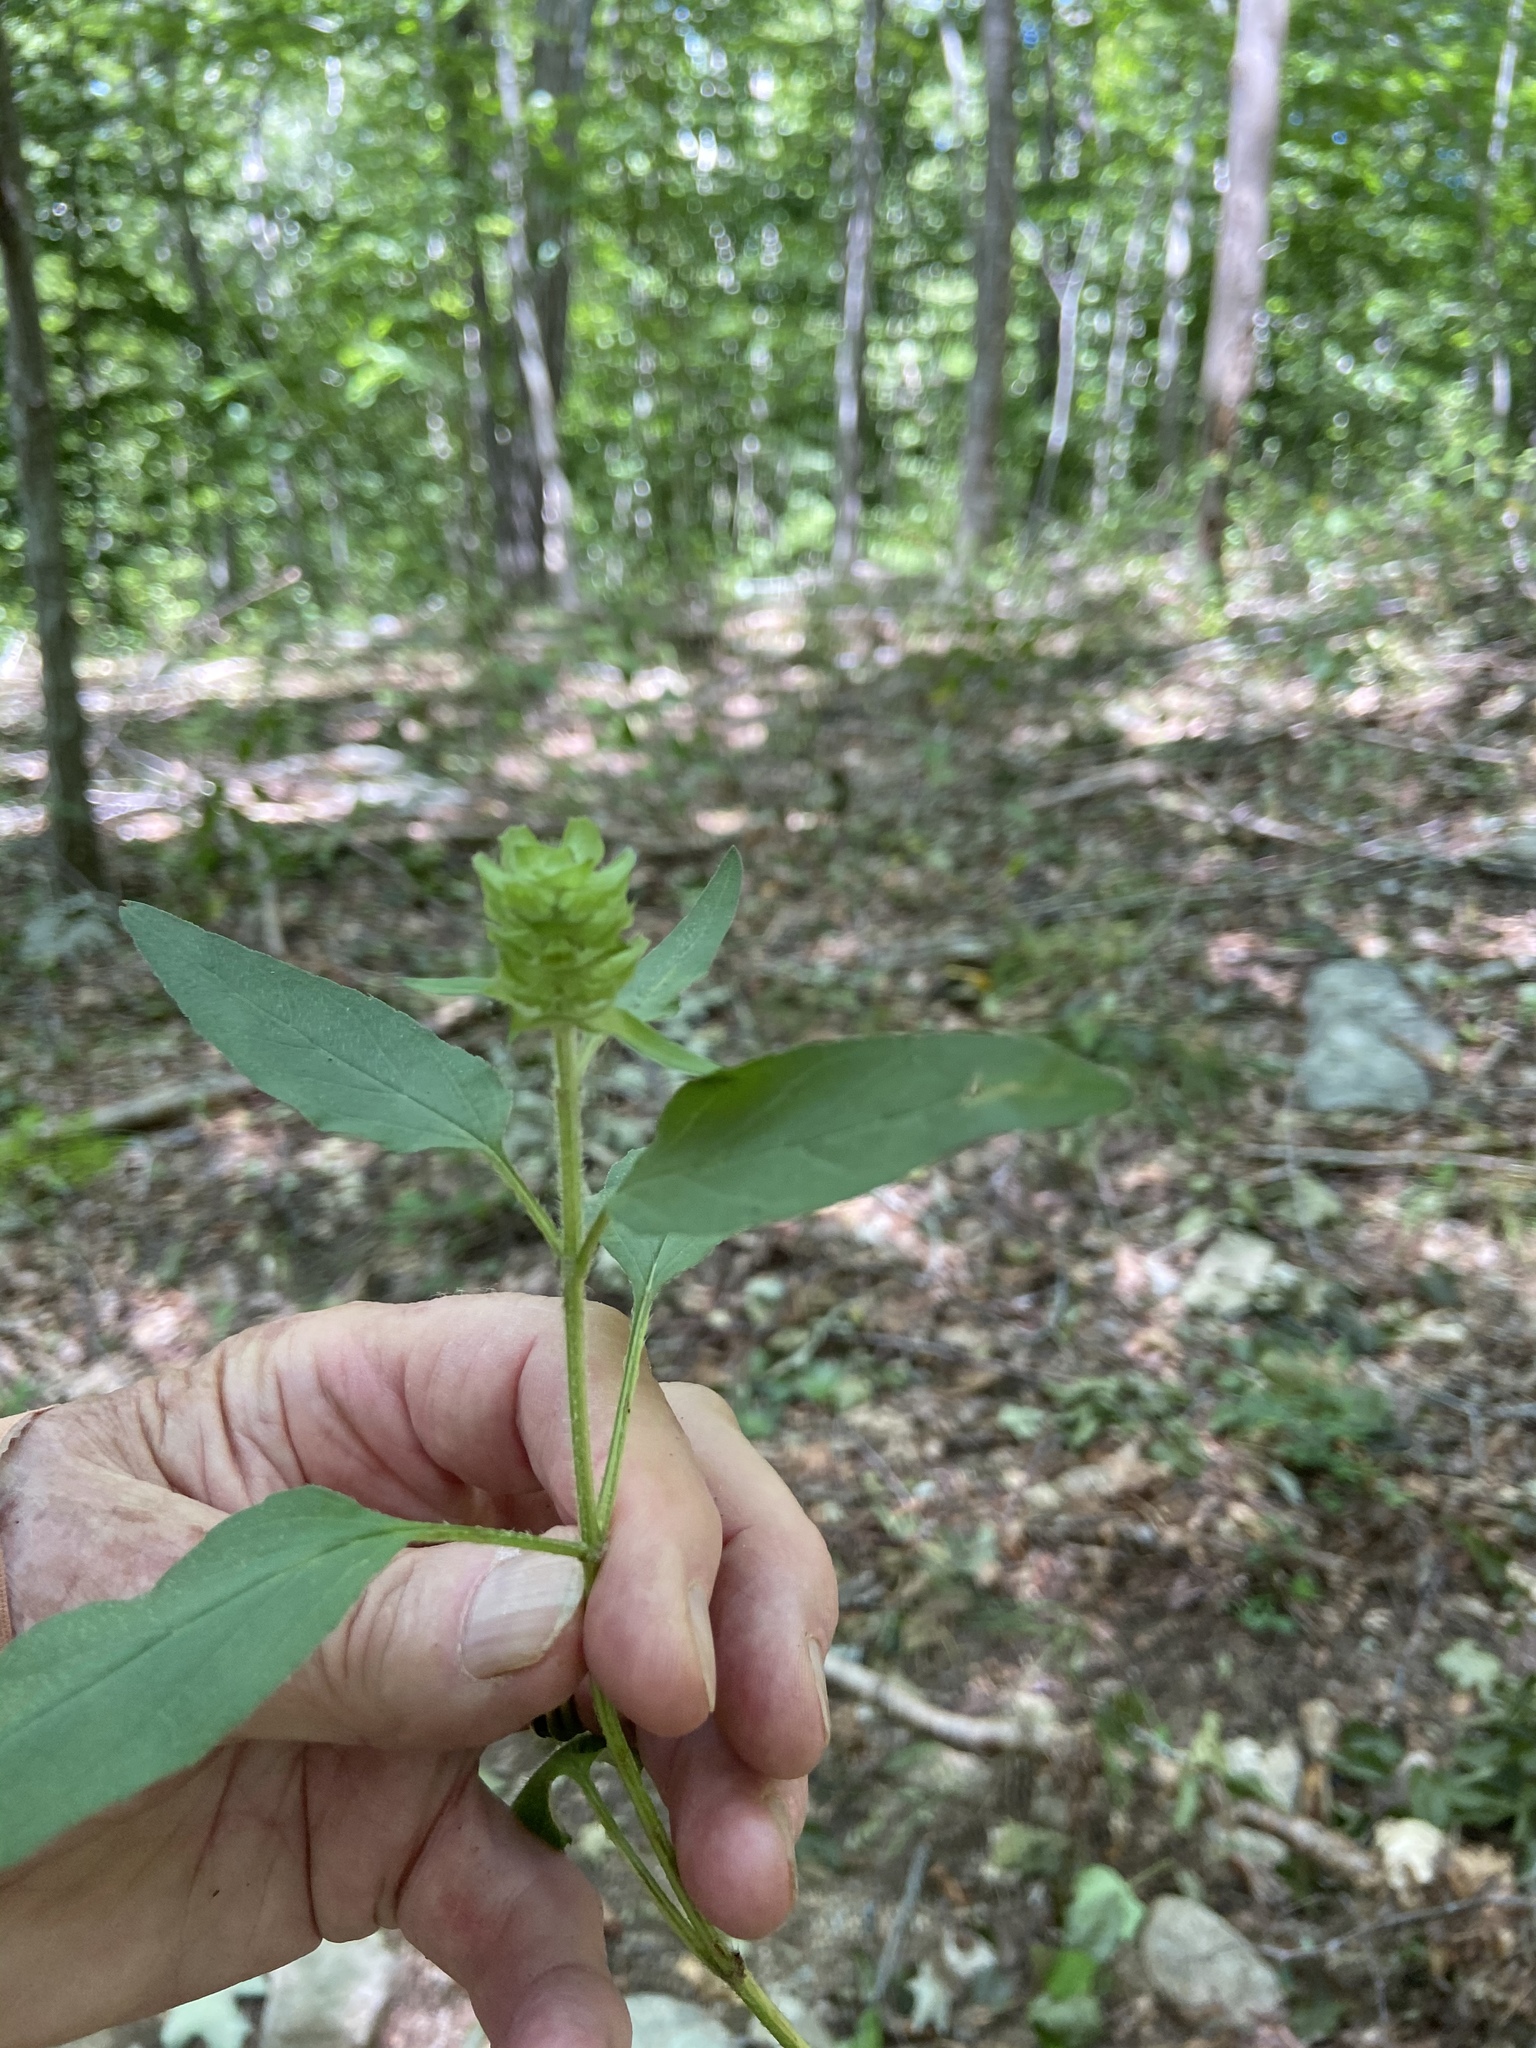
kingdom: Plantae
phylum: Tracheophyta
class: Magnoliopsida
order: Lamiales
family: Lamiaceae
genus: Prunella
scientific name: Prunella vulgaris
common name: Heal-all
